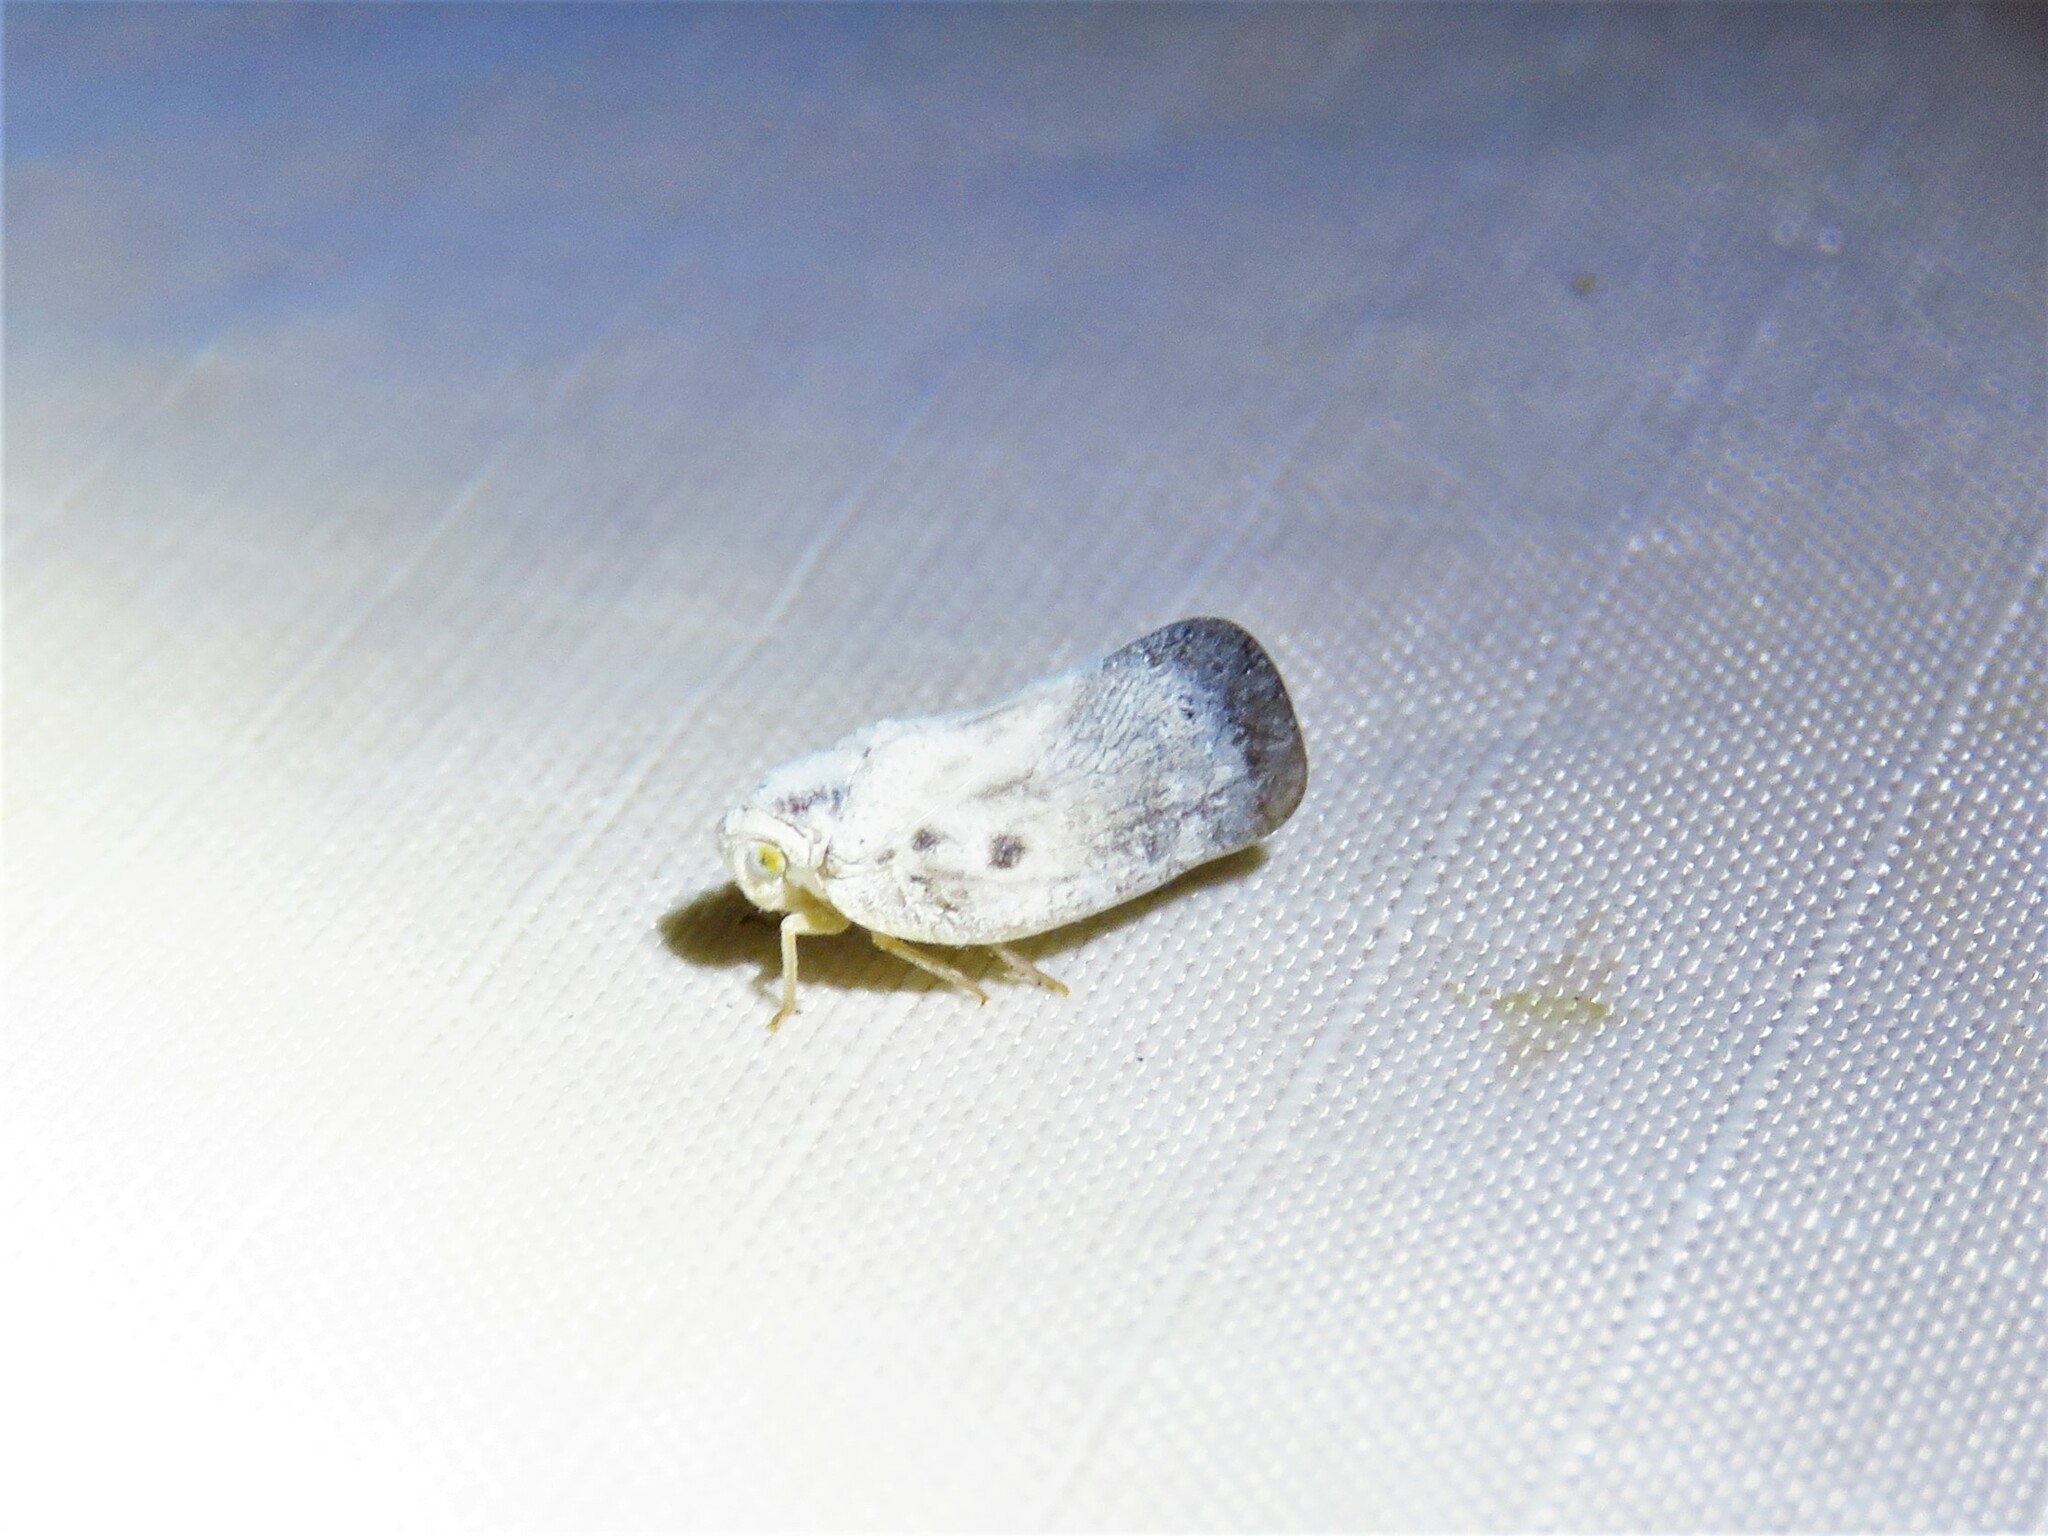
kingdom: Animalia
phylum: Arthropoda
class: Insecta
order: Hemiptera
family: Flatidae
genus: Metcalfa
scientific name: Metcalfa pruinosa
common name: Citrus flatid planthopper
